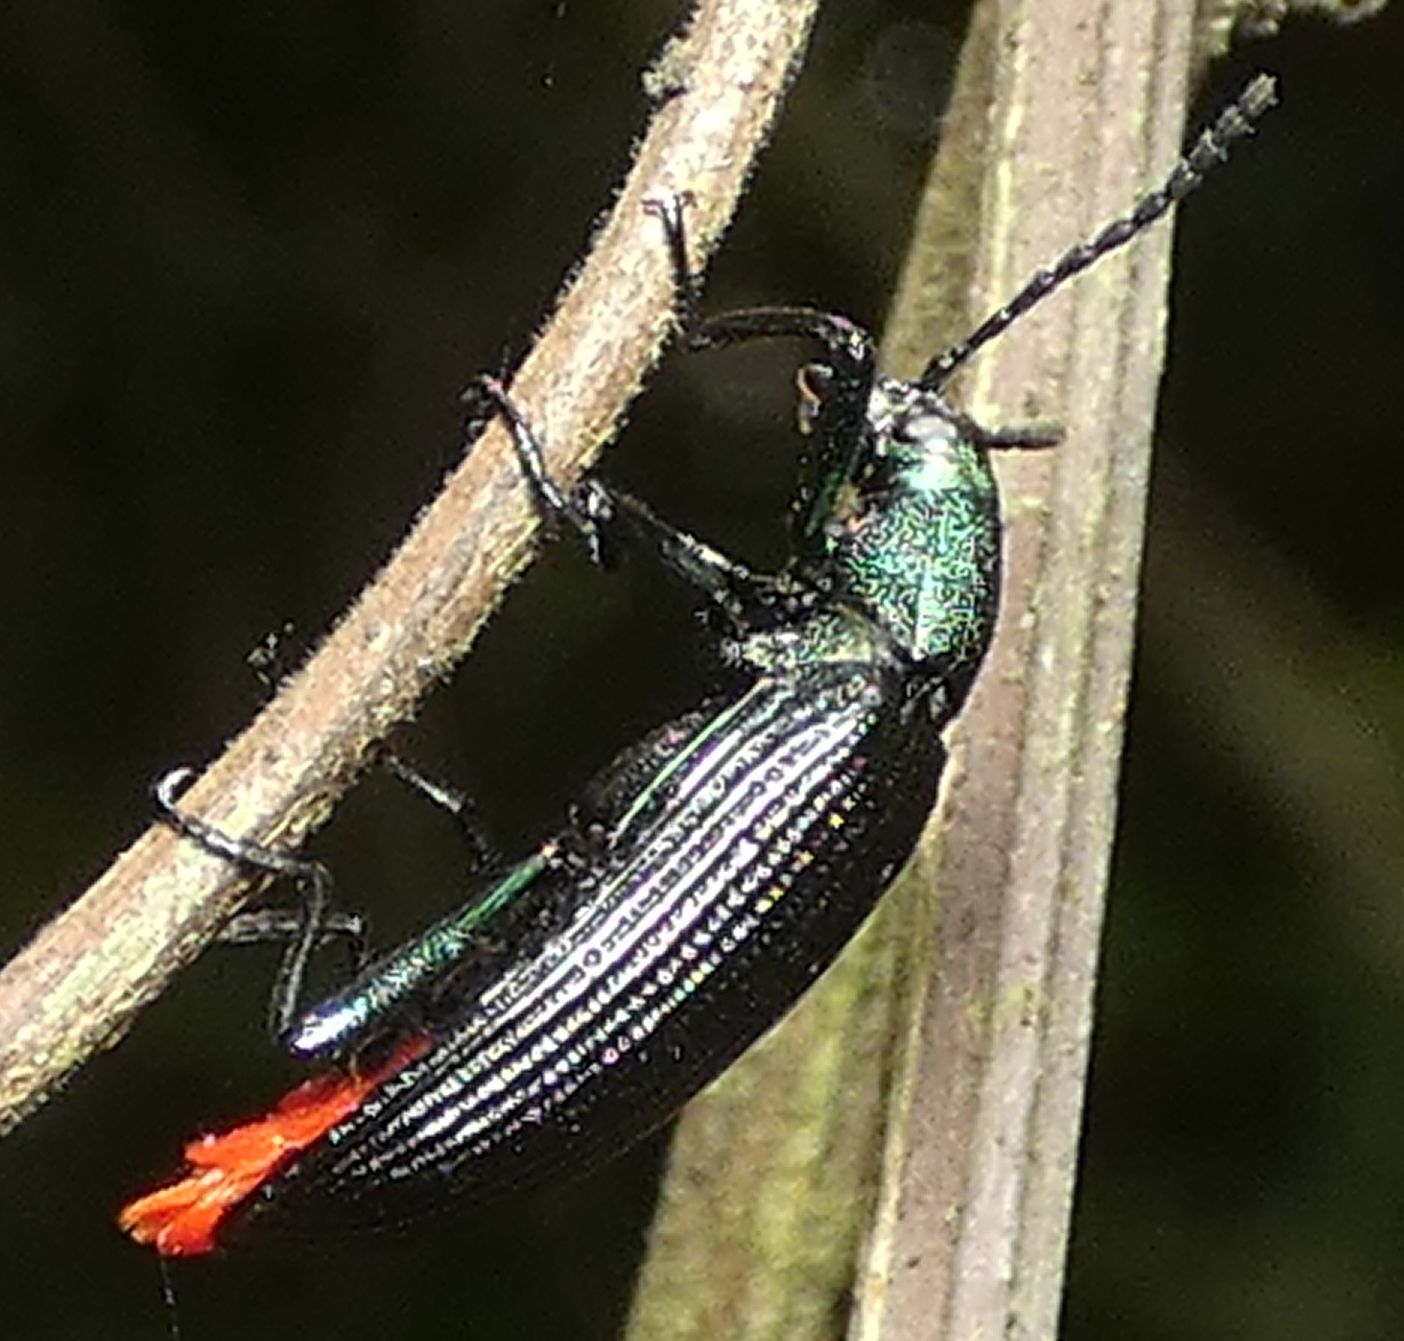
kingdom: Animalia
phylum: Arthropoda
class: Insecta
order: Coleoptera
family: Tenebrionidae
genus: Strongylium
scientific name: Strongylium
